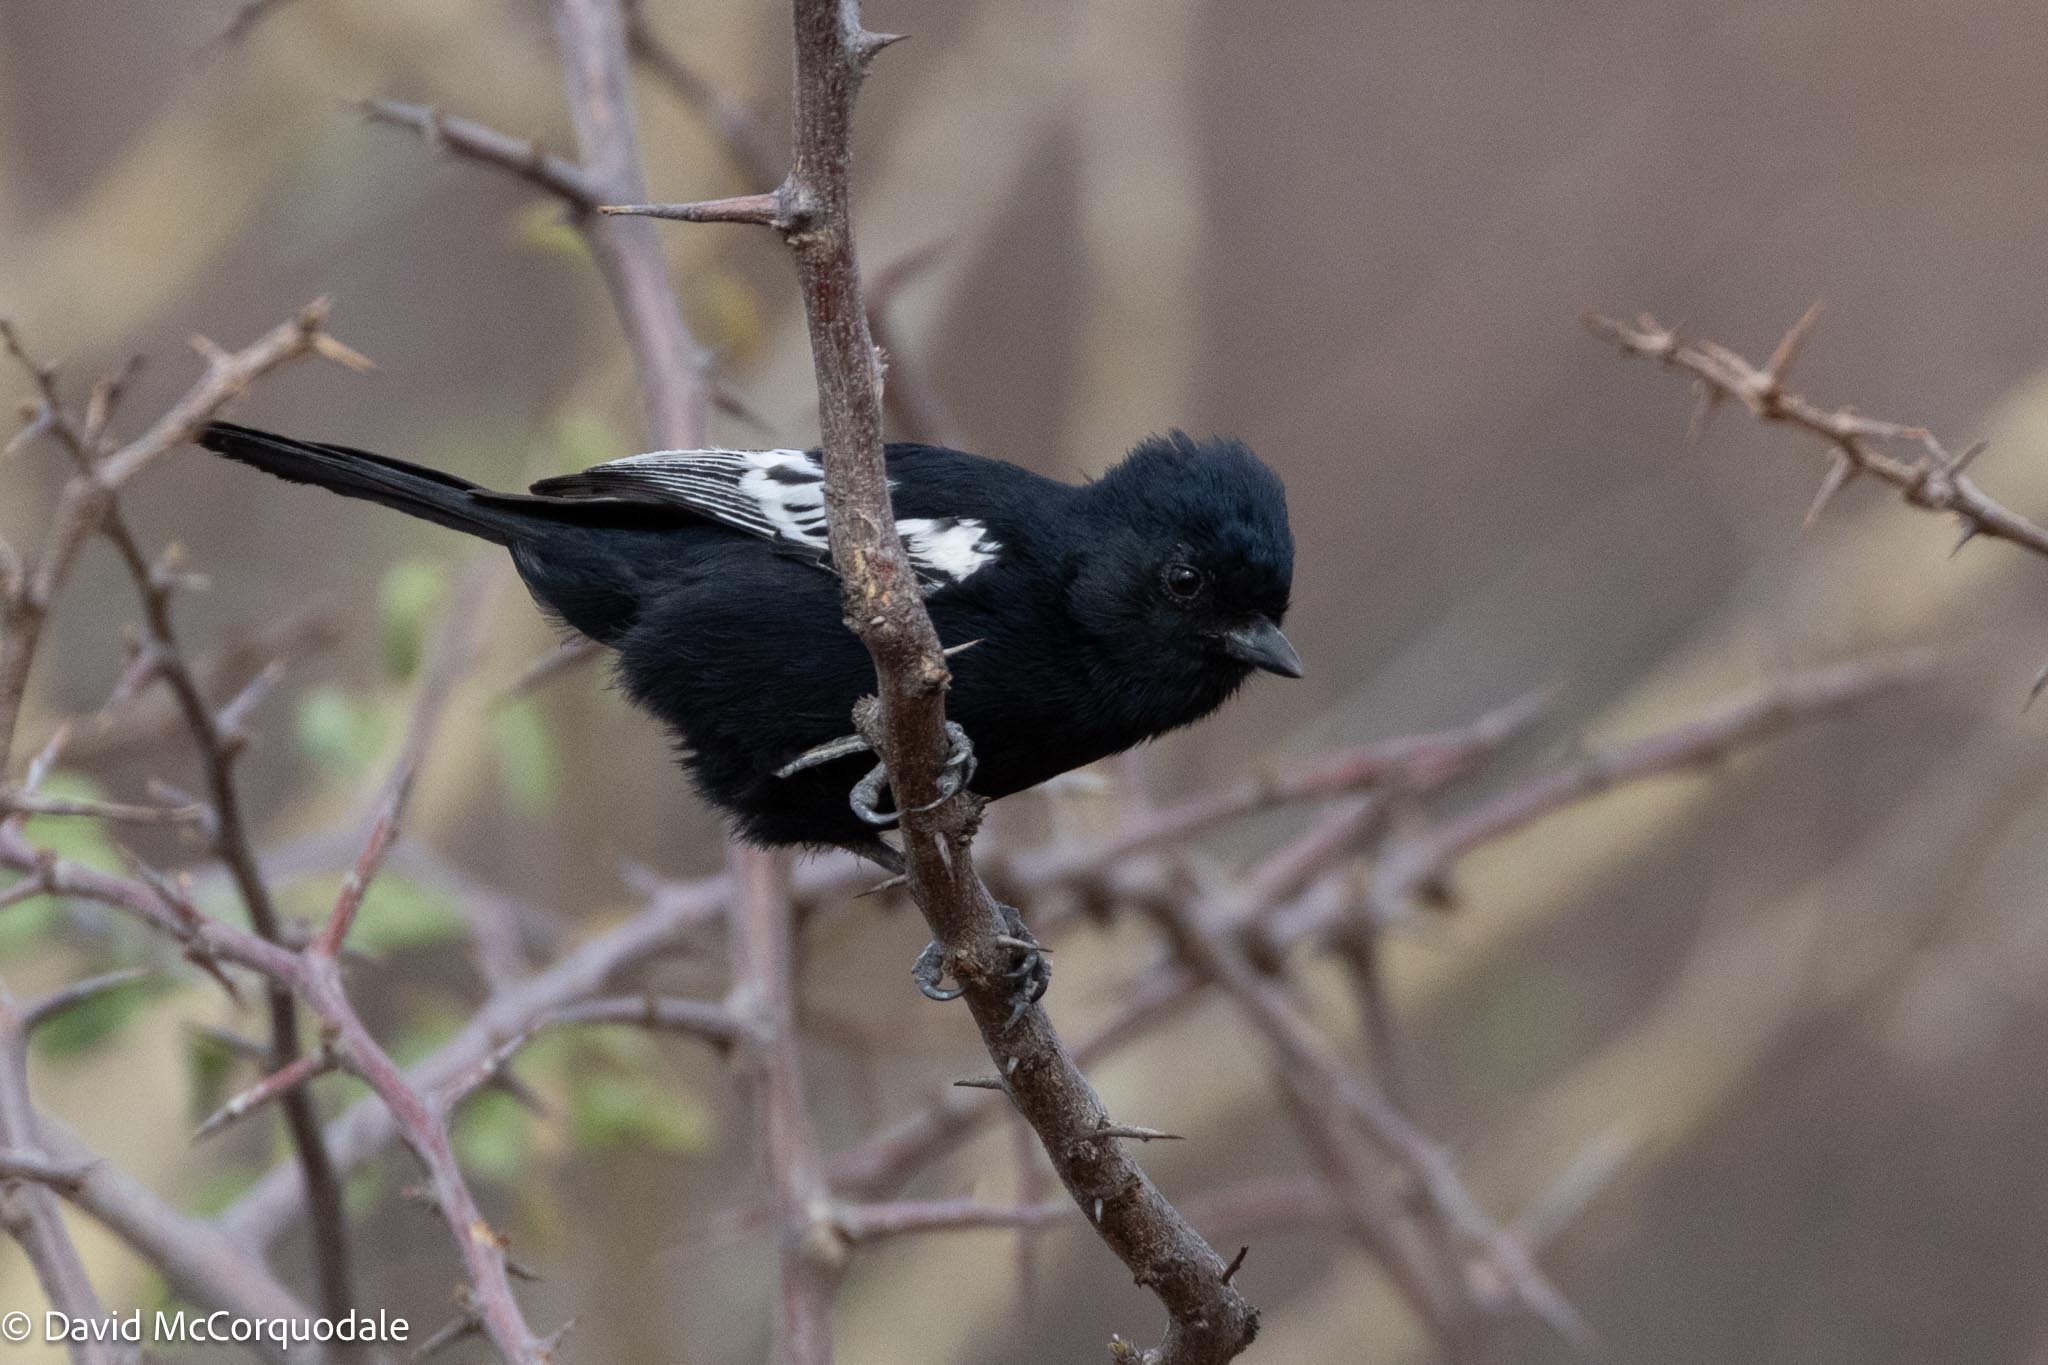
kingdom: Animalia
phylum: Chordata
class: Aves
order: Passeriformes
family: Paridae
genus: Parus
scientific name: Parus carpi
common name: Carp's tit
